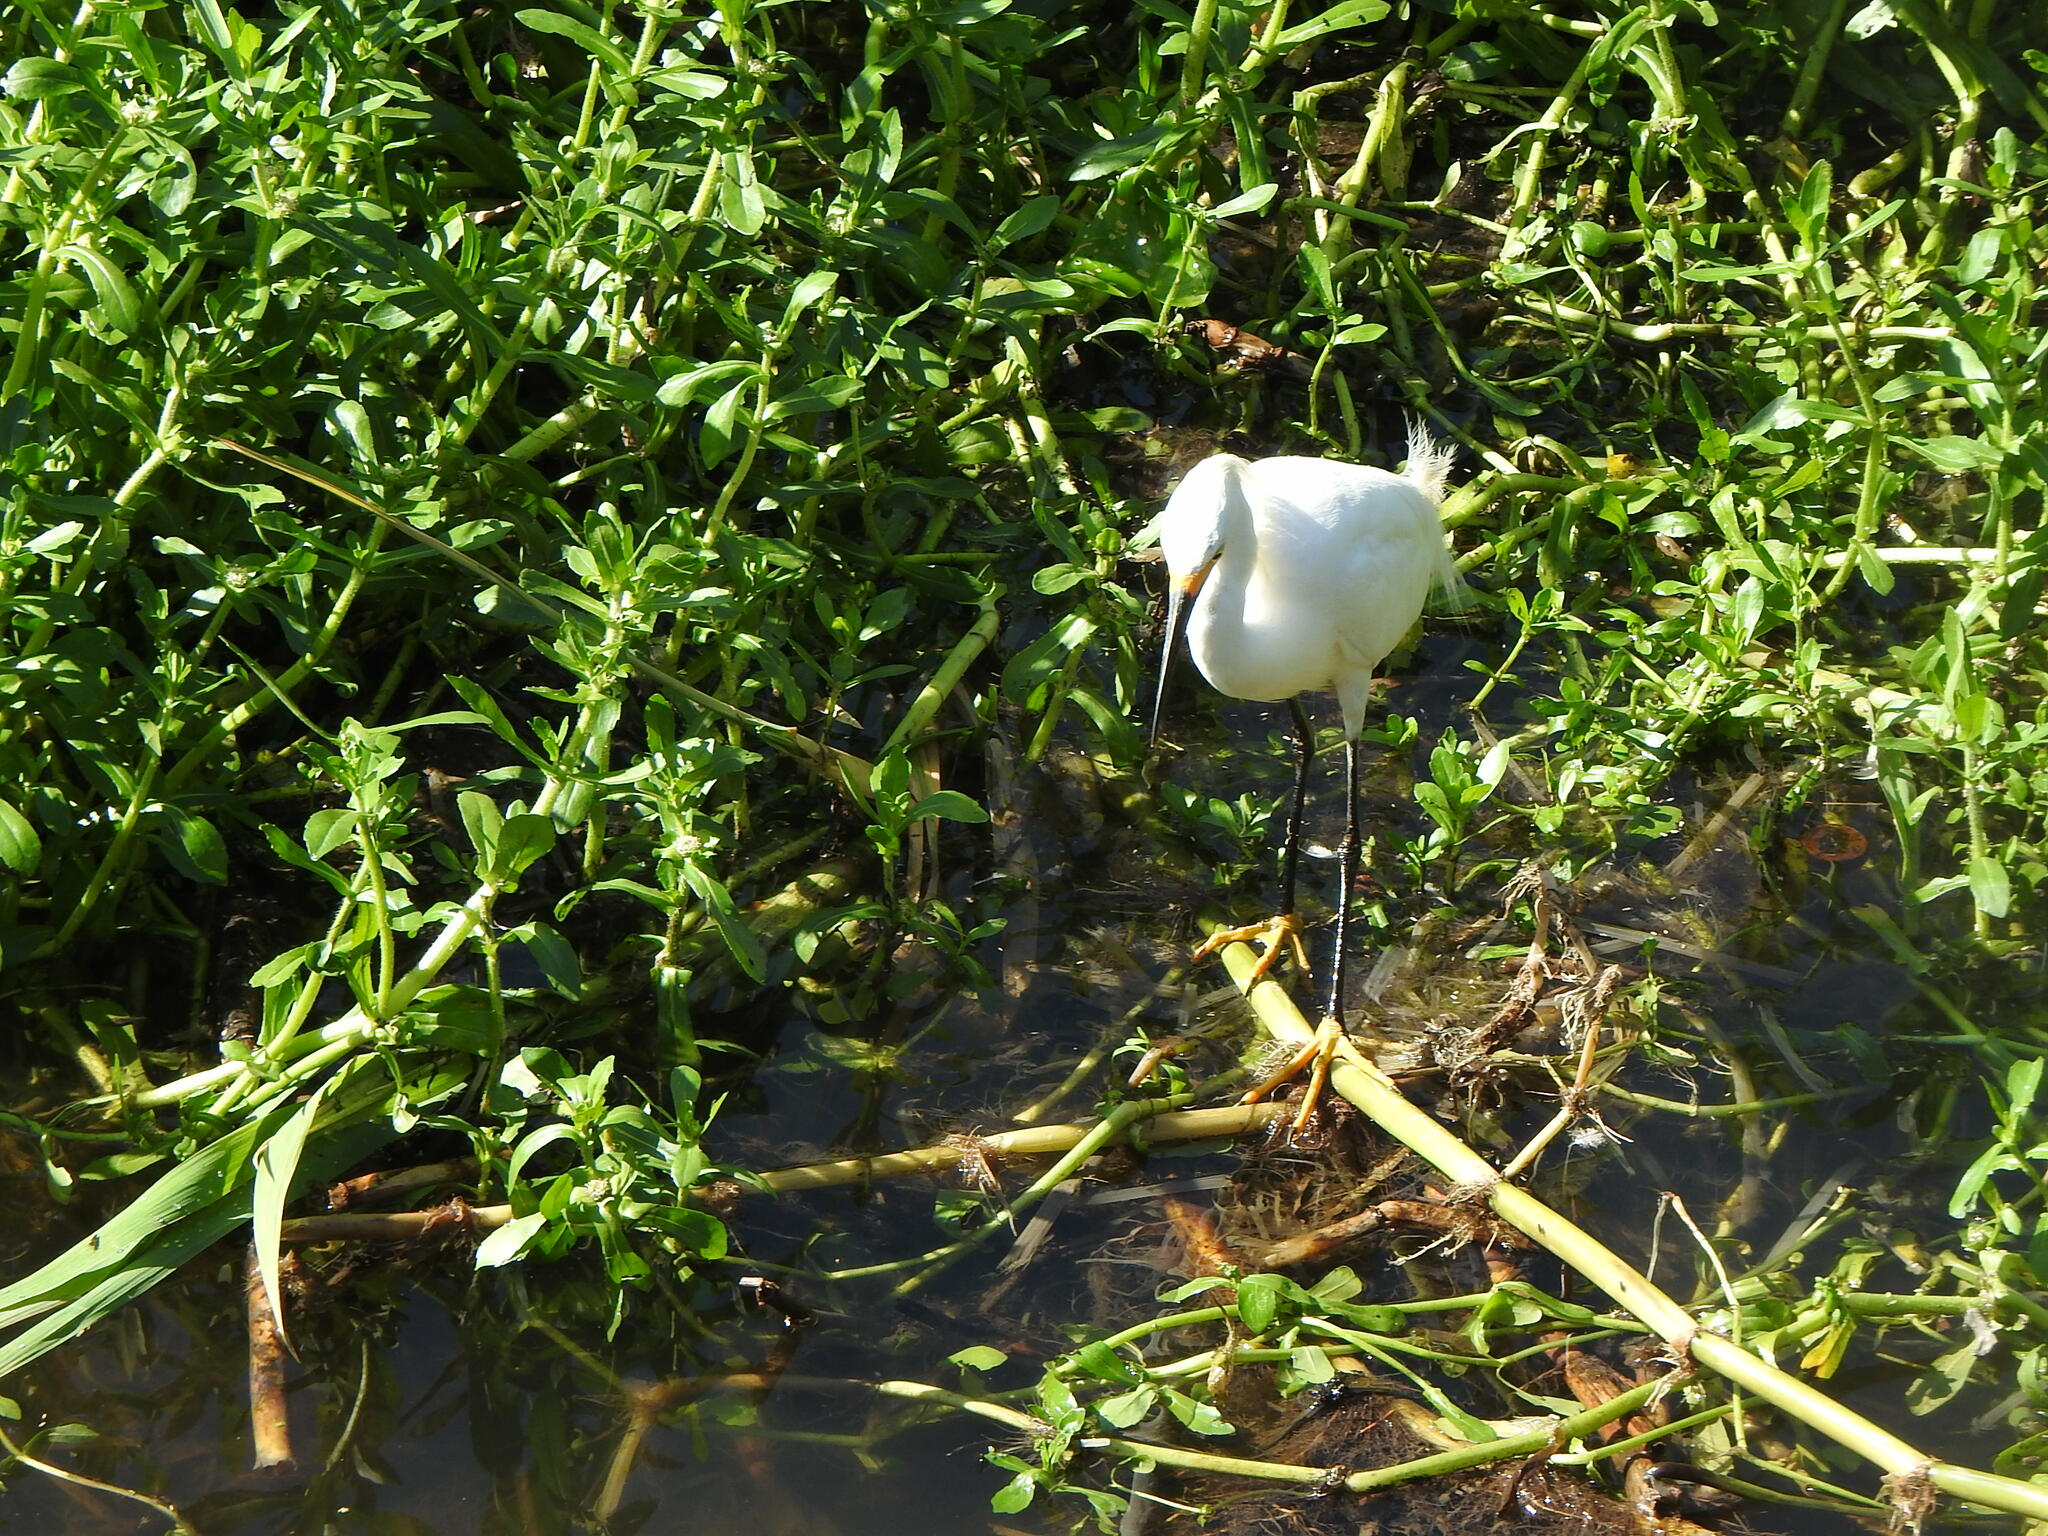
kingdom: Animalia
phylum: Chordata
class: Aves
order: Pelecaniformes
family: Ardeidae
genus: Egretta
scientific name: Egretta thula
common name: Snowy egret
